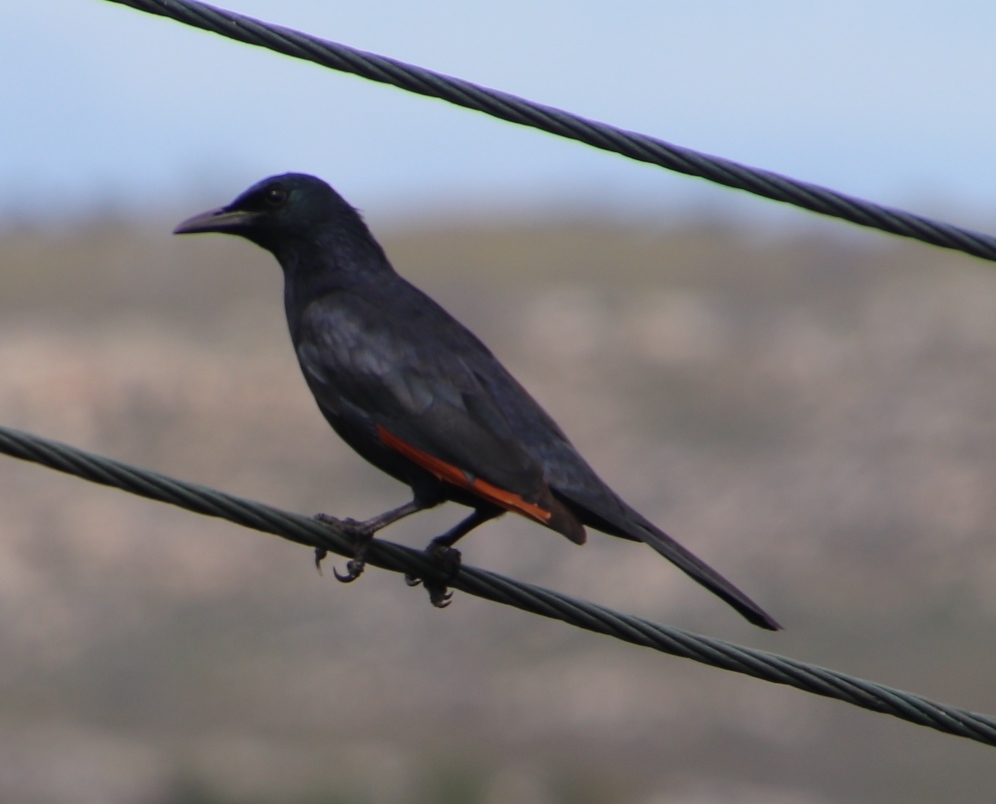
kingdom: Animalia
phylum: Chordata
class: Aves
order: Passeriformes
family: Sturnidae
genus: Onychognathus
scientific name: Onychognathus morio
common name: Red-winged starling
